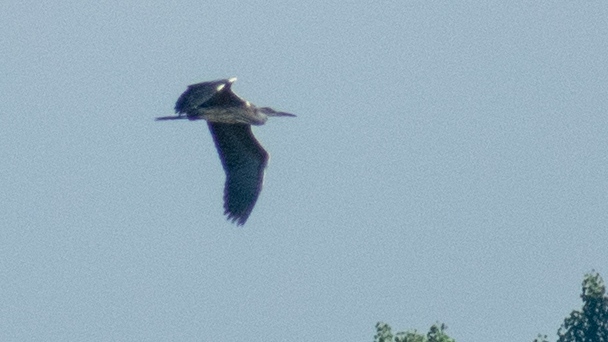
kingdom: Animalia
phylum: Chordata
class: Aves
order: Pelecaniformes
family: Ardeidae
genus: Ardea
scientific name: Ardea cinerea
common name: Grey heron
